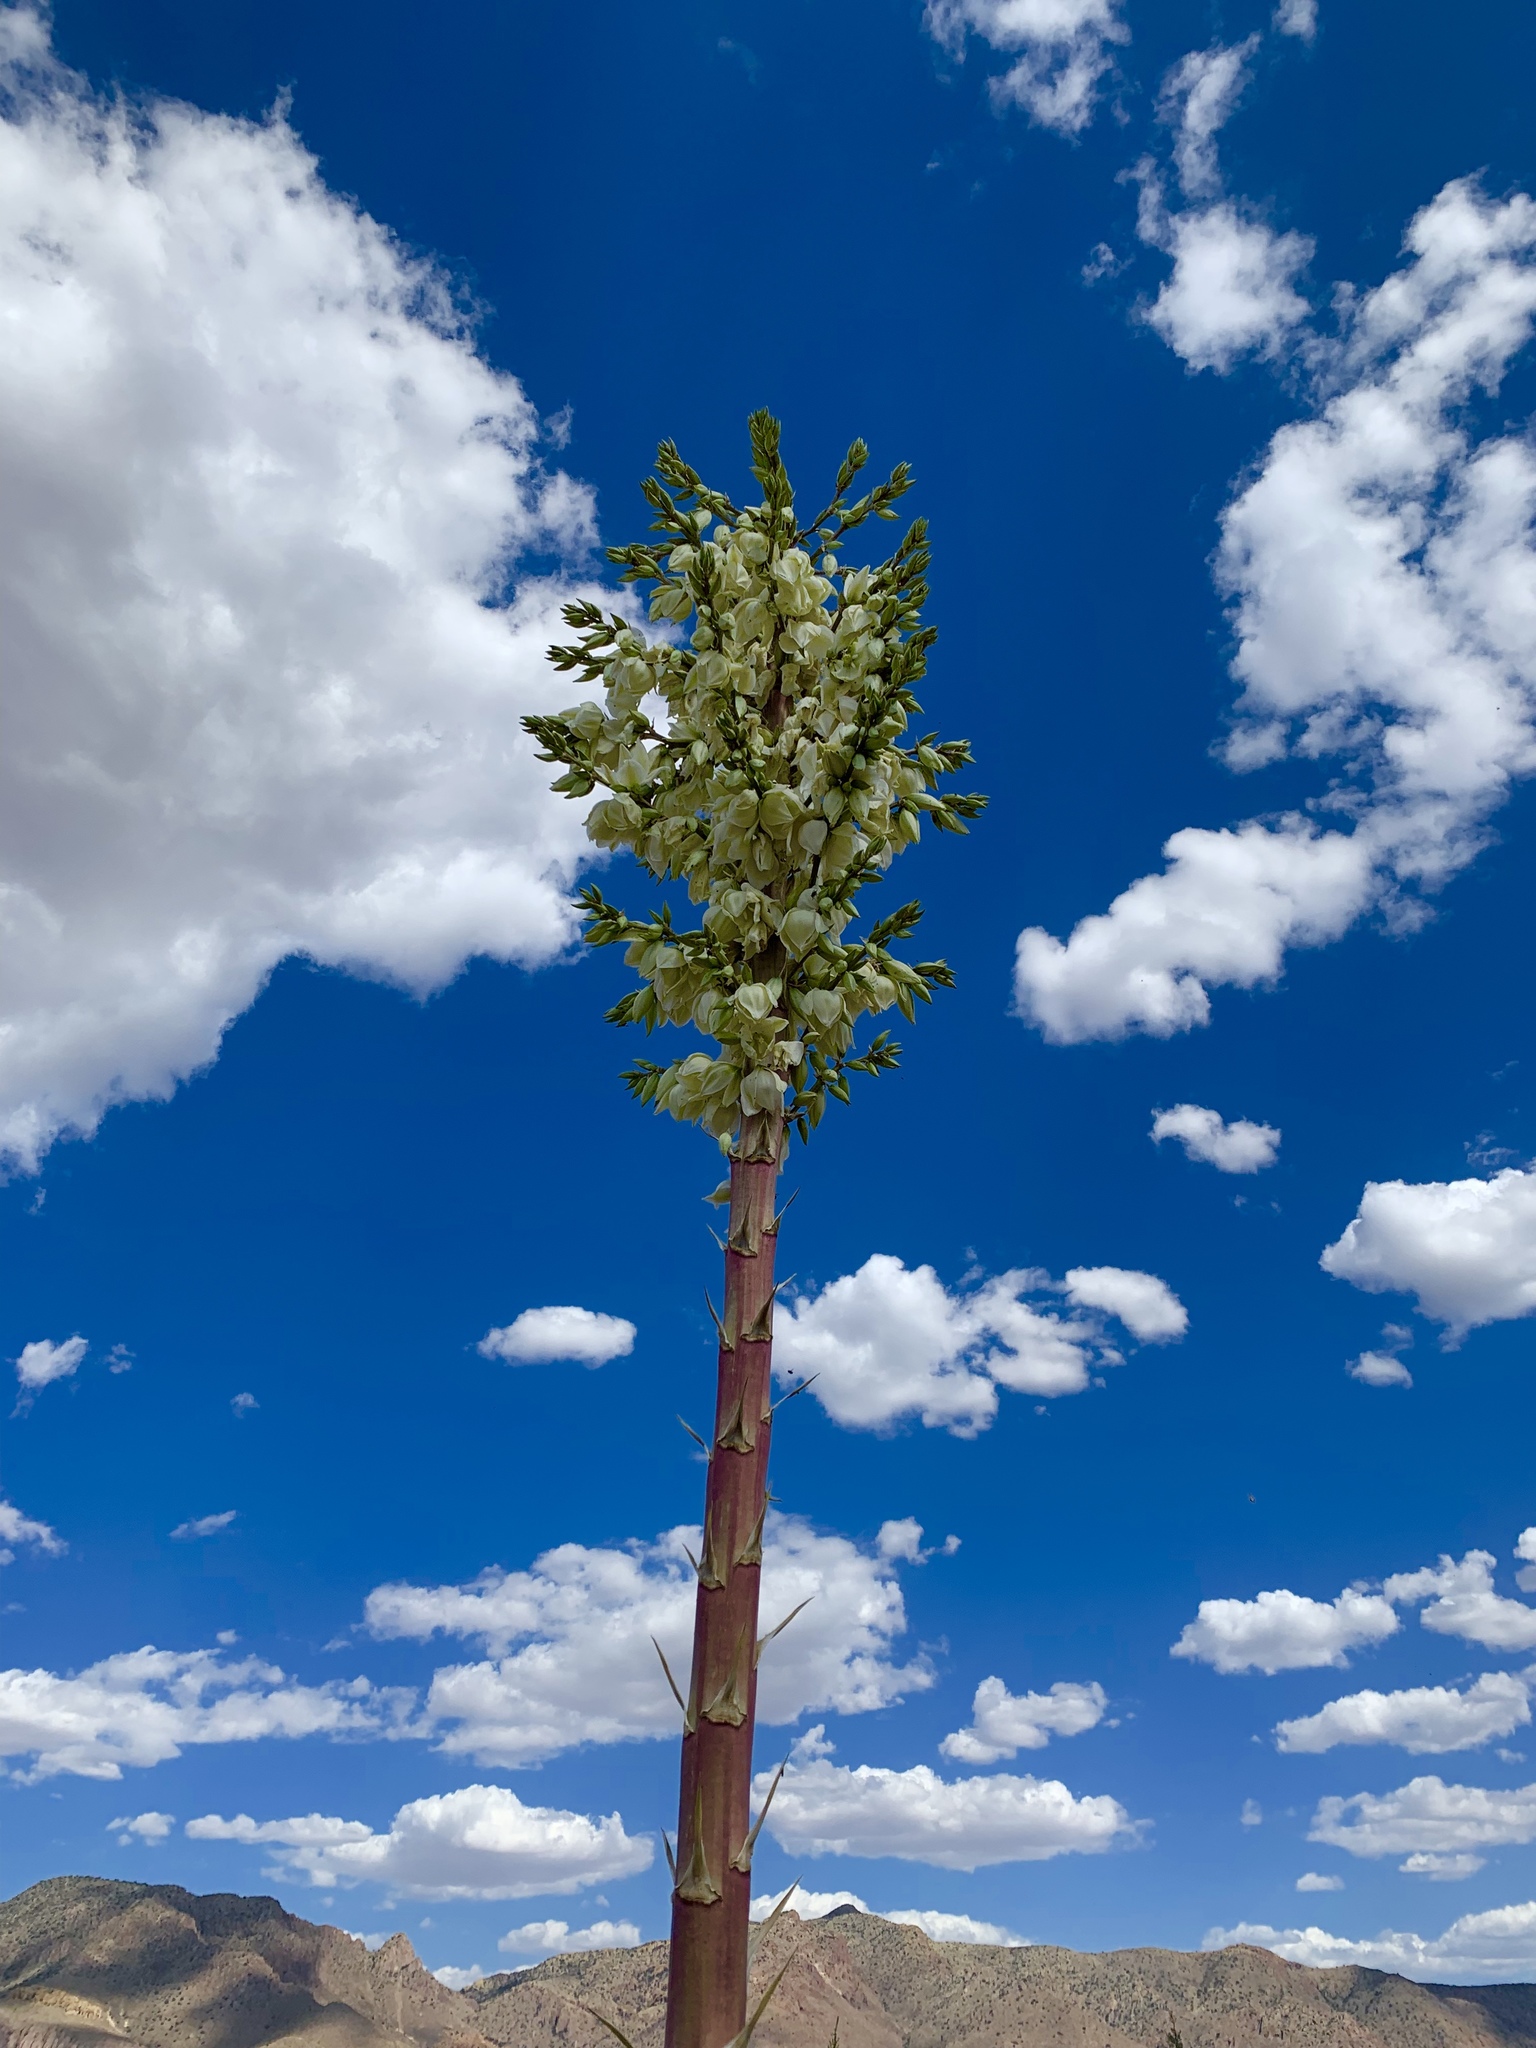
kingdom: Plantae
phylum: Tracheophyta
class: Liliopsida
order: Asparagales
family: Asparagaceae
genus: Yucca
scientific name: Yucca elata
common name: Palmella
